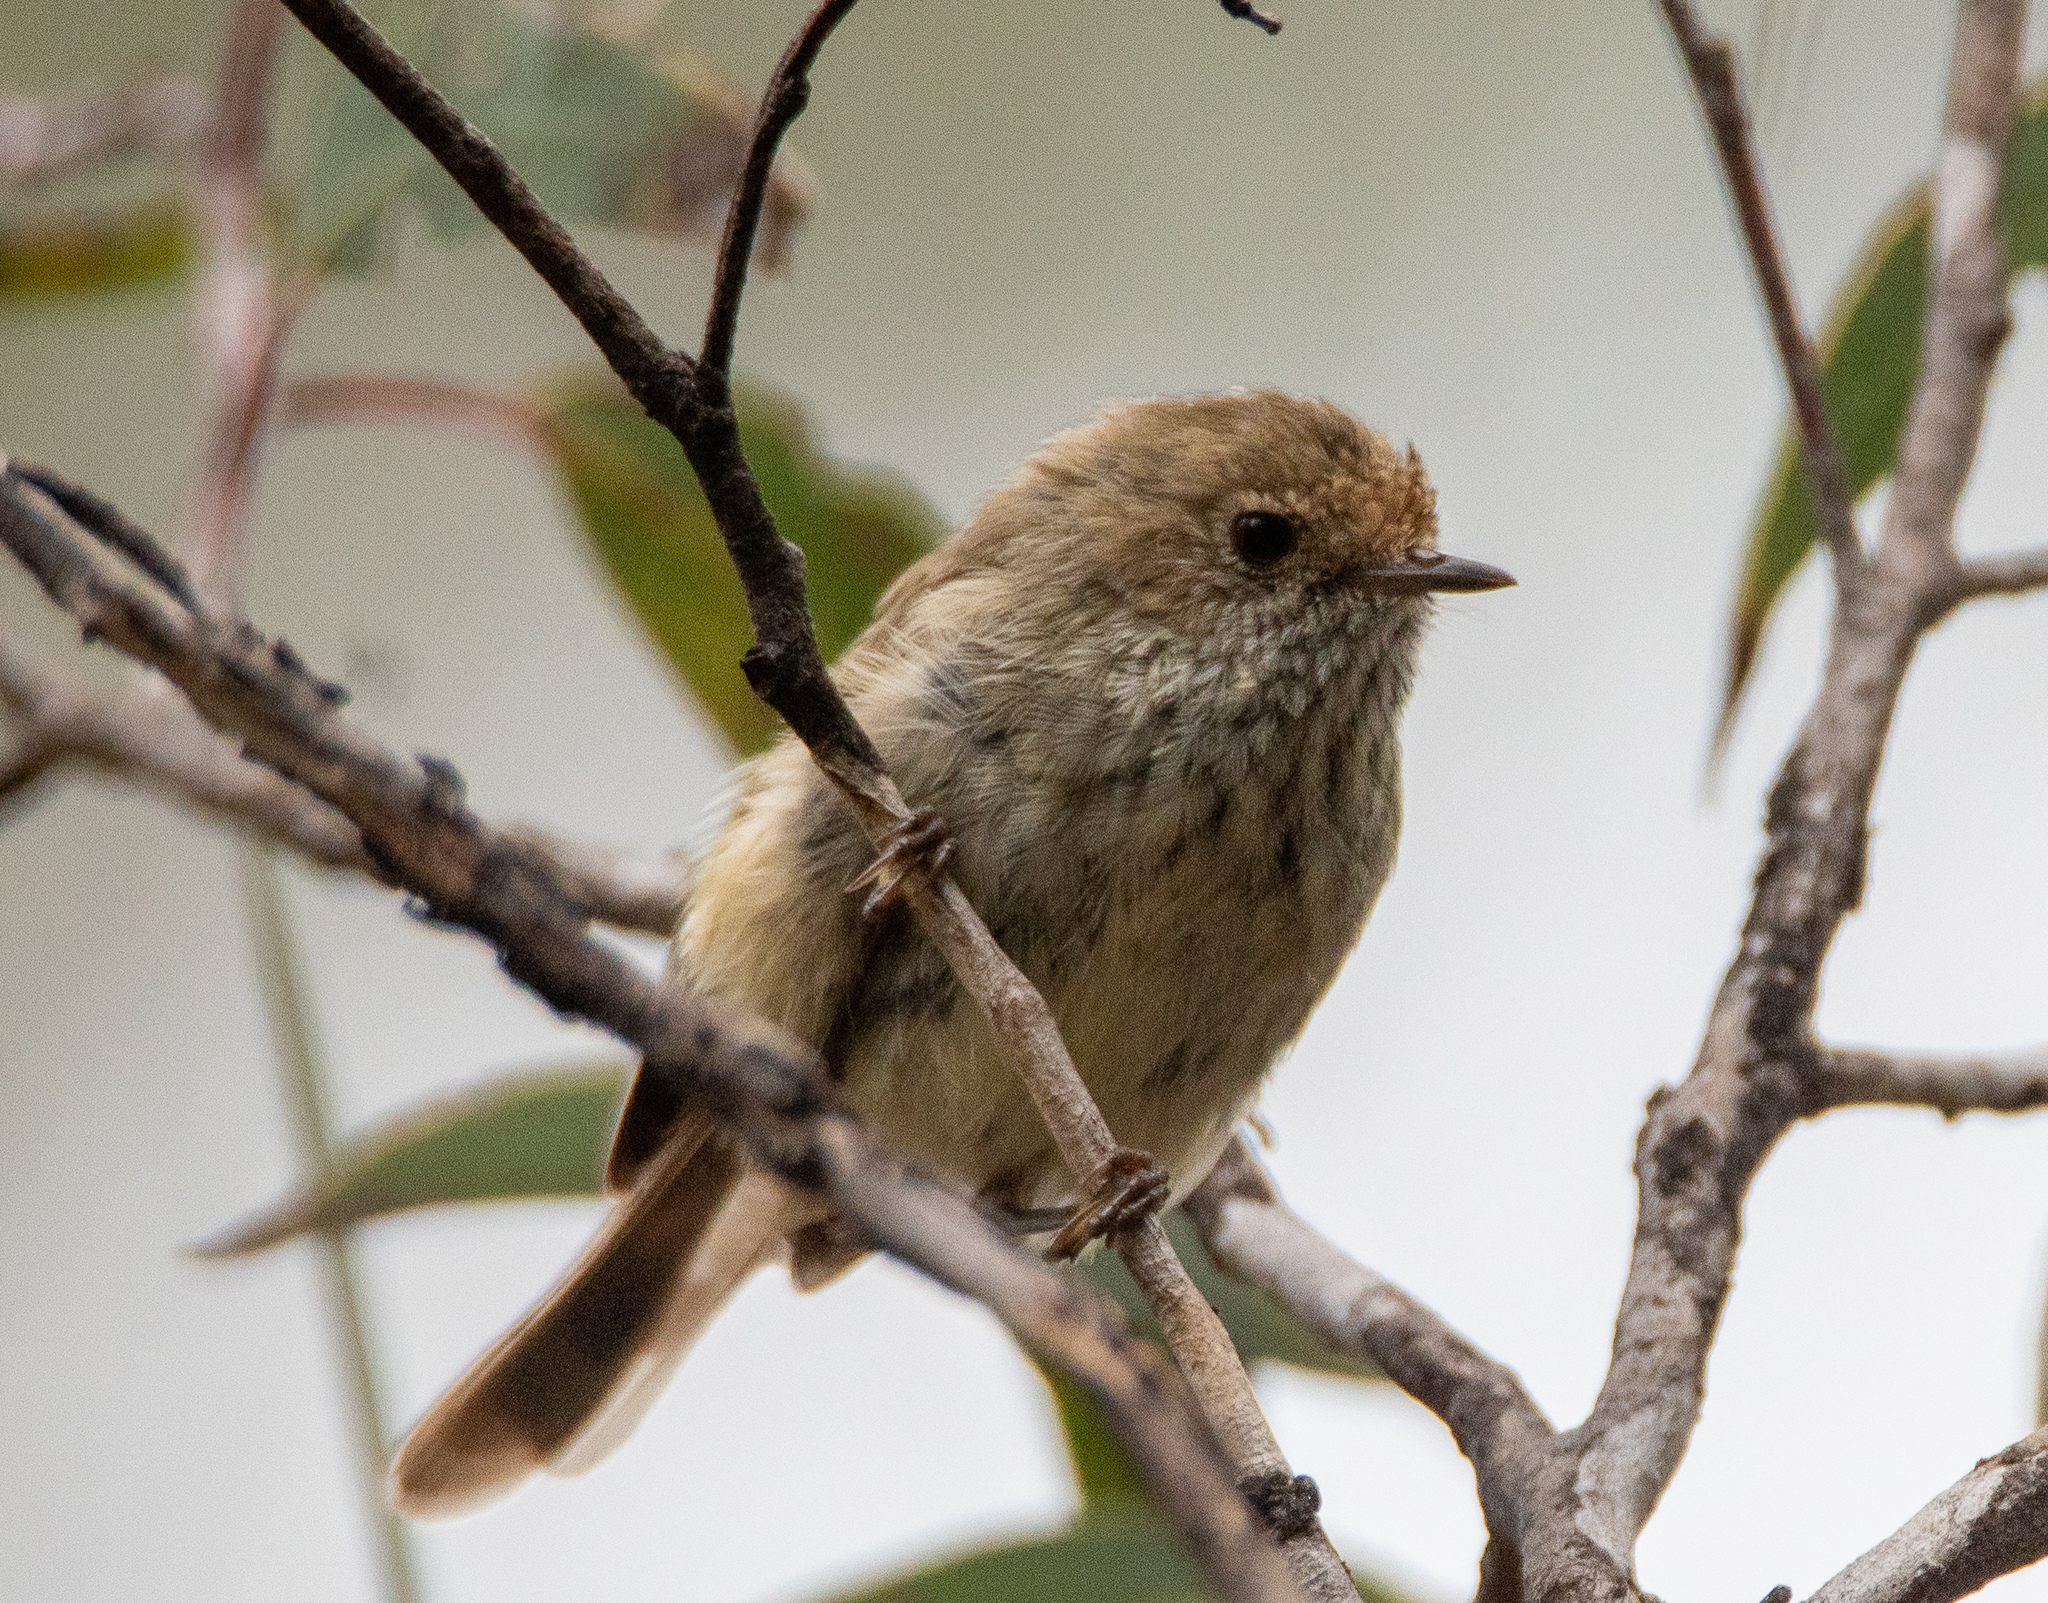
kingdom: Animalia
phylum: Chordata
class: Aves
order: Passeriformes
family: Acanthizidae
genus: Acanthiza
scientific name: Acanthiza pusilla
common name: Brown thornbill
